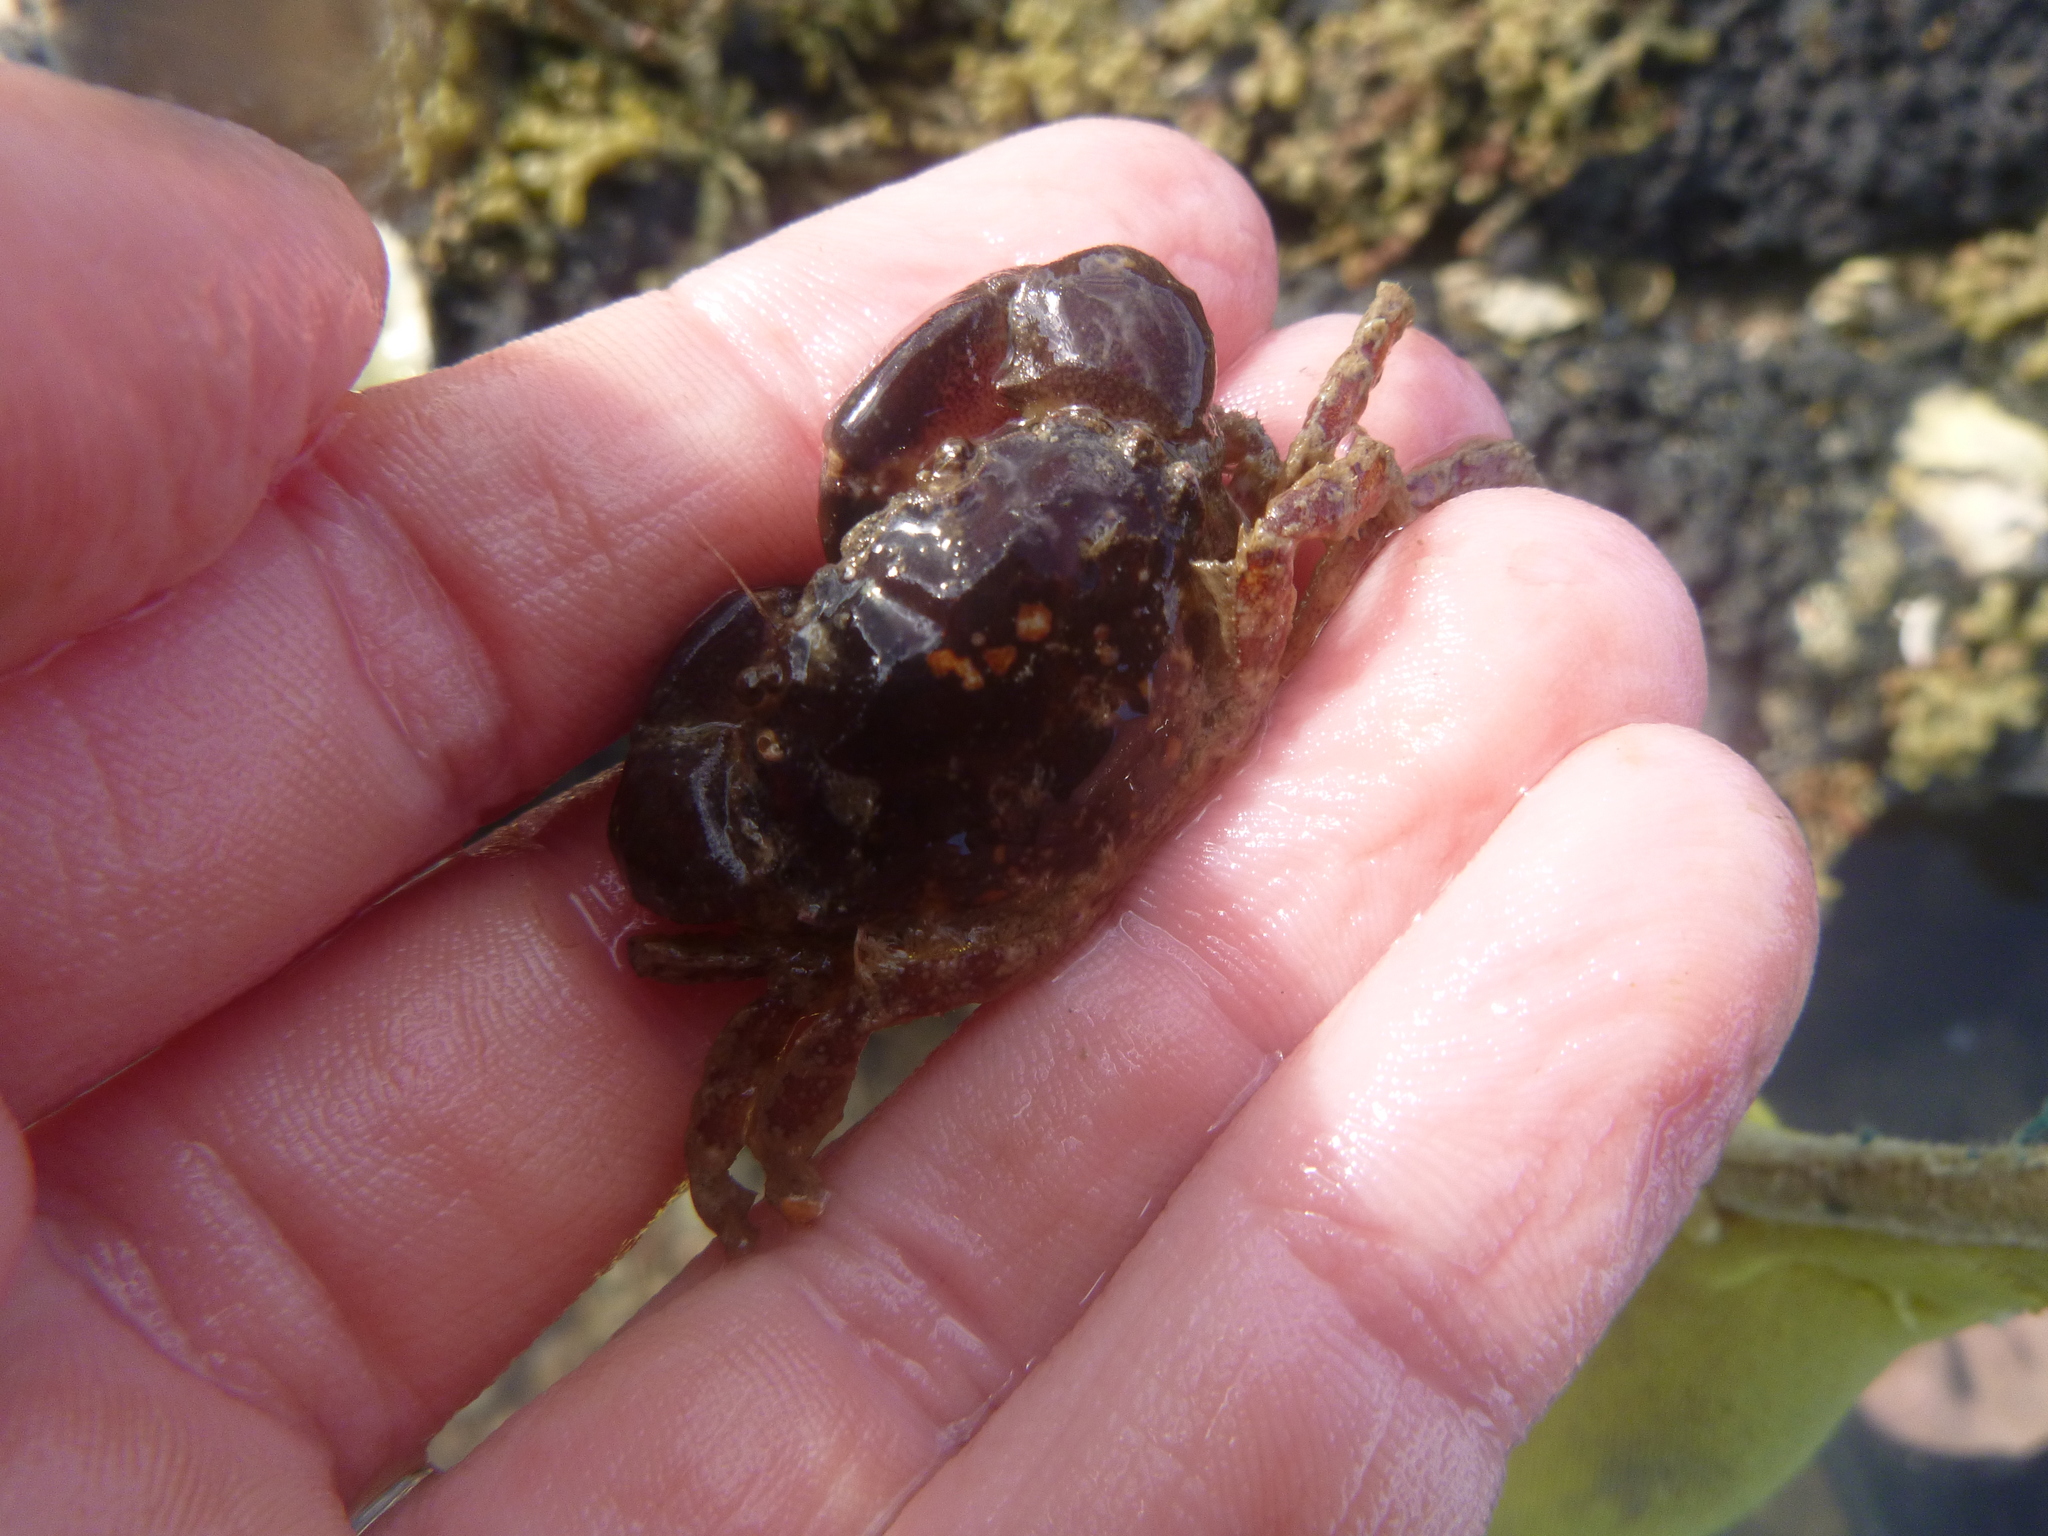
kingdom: Animalia
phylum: Arthropoda
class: Malacostraca
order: Decapoda
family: Pilumnidae
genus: Pilumnopeus
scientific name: Pilumnopeus serratifrons
